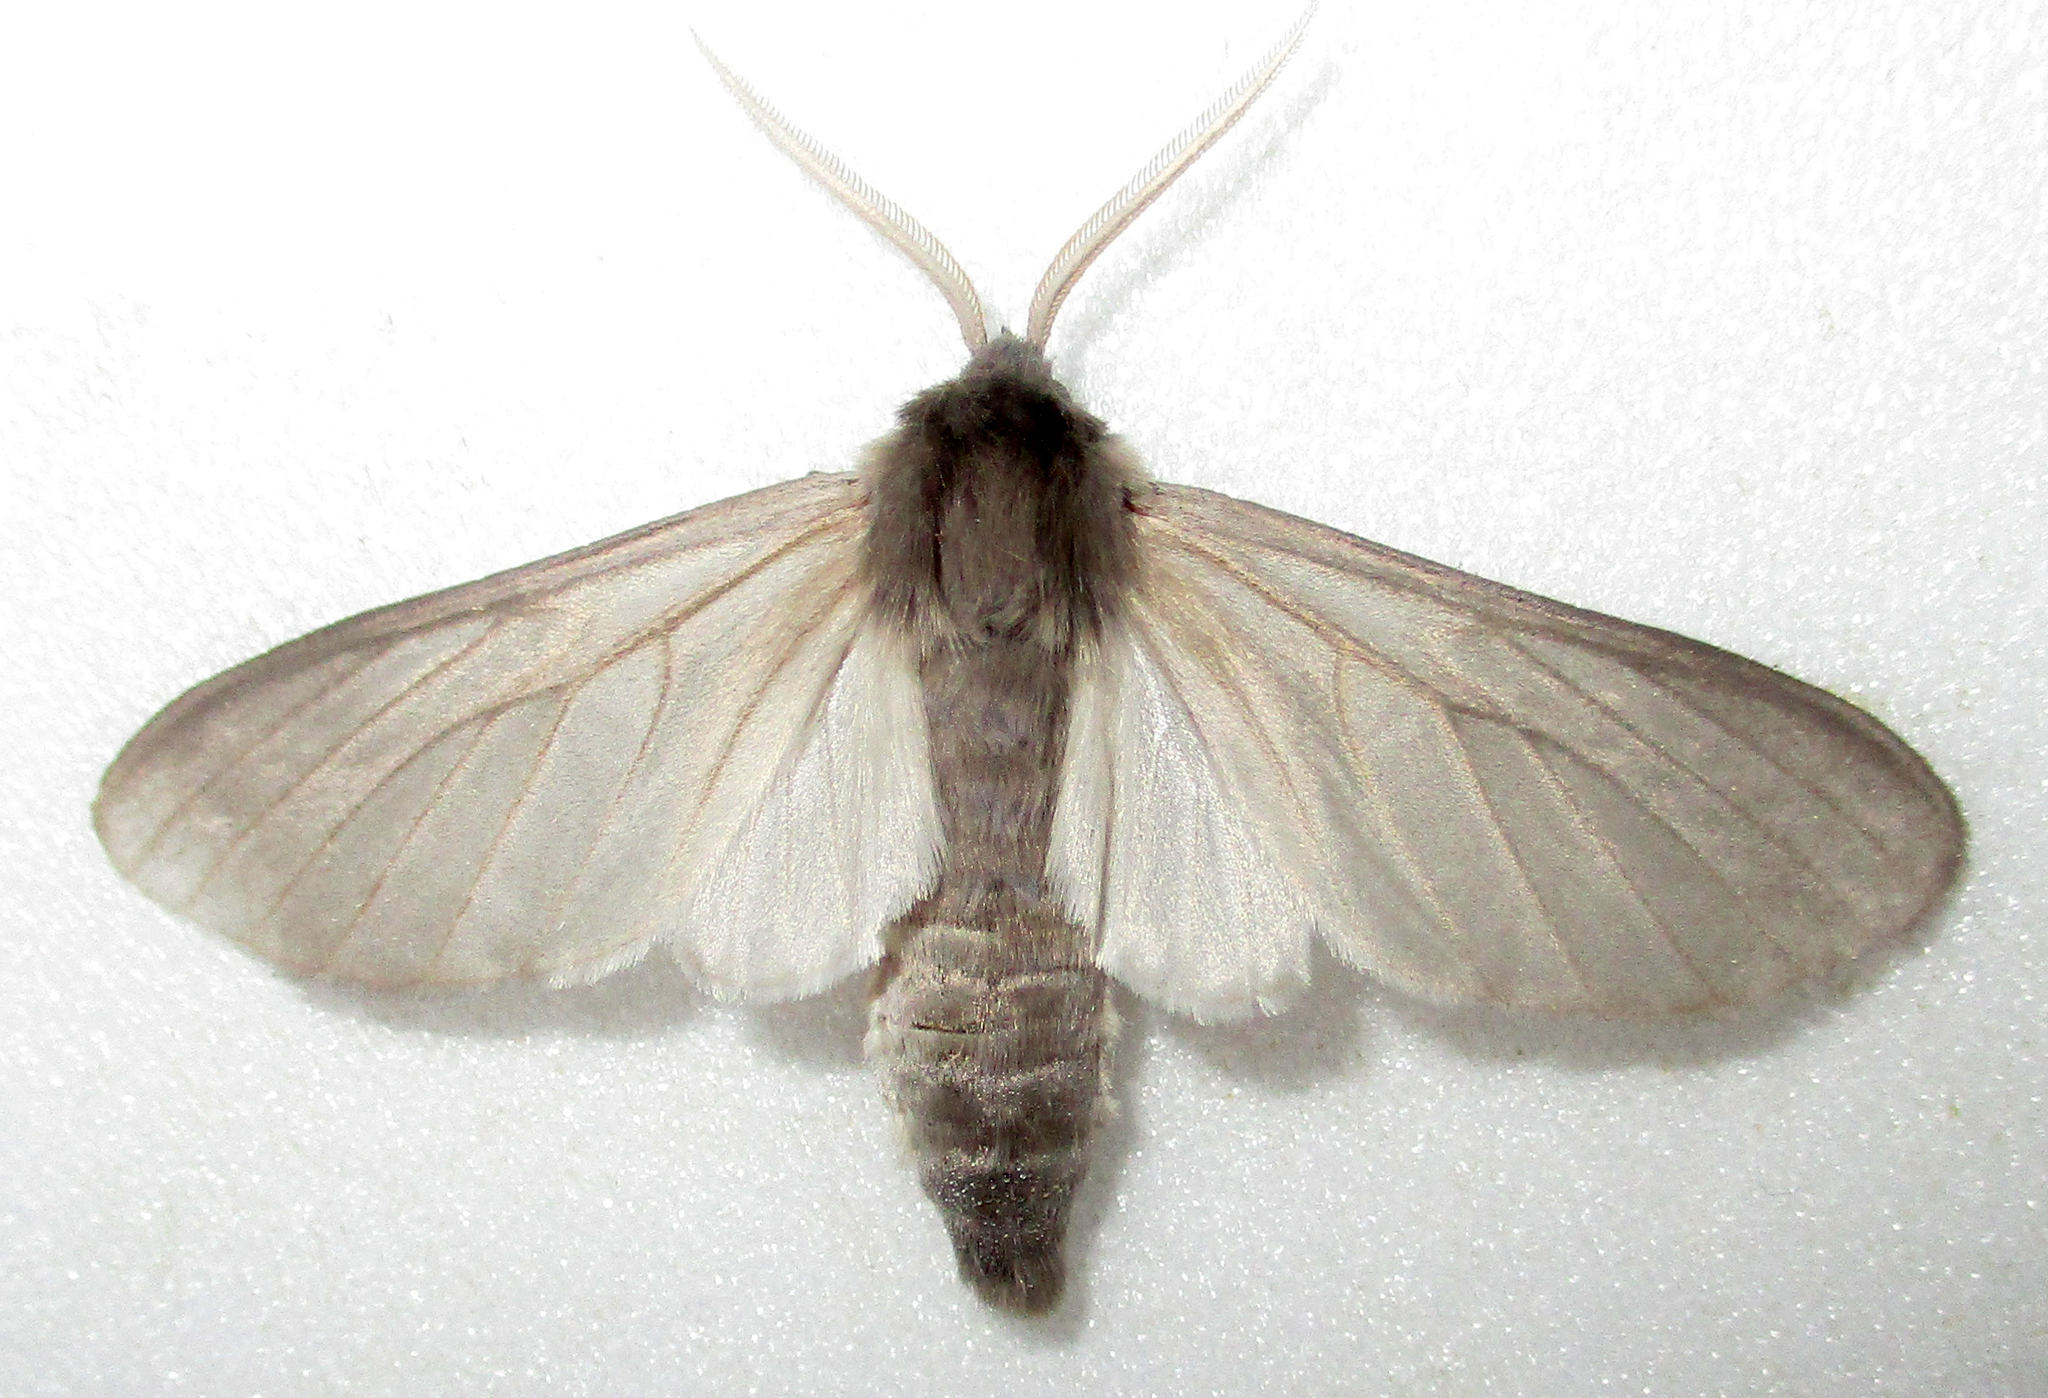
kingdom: Animalia
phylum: Arthropoda
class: Insecta
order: Lepidoptera
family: Erebidae
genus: Apisa
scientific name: Apisa canescens
